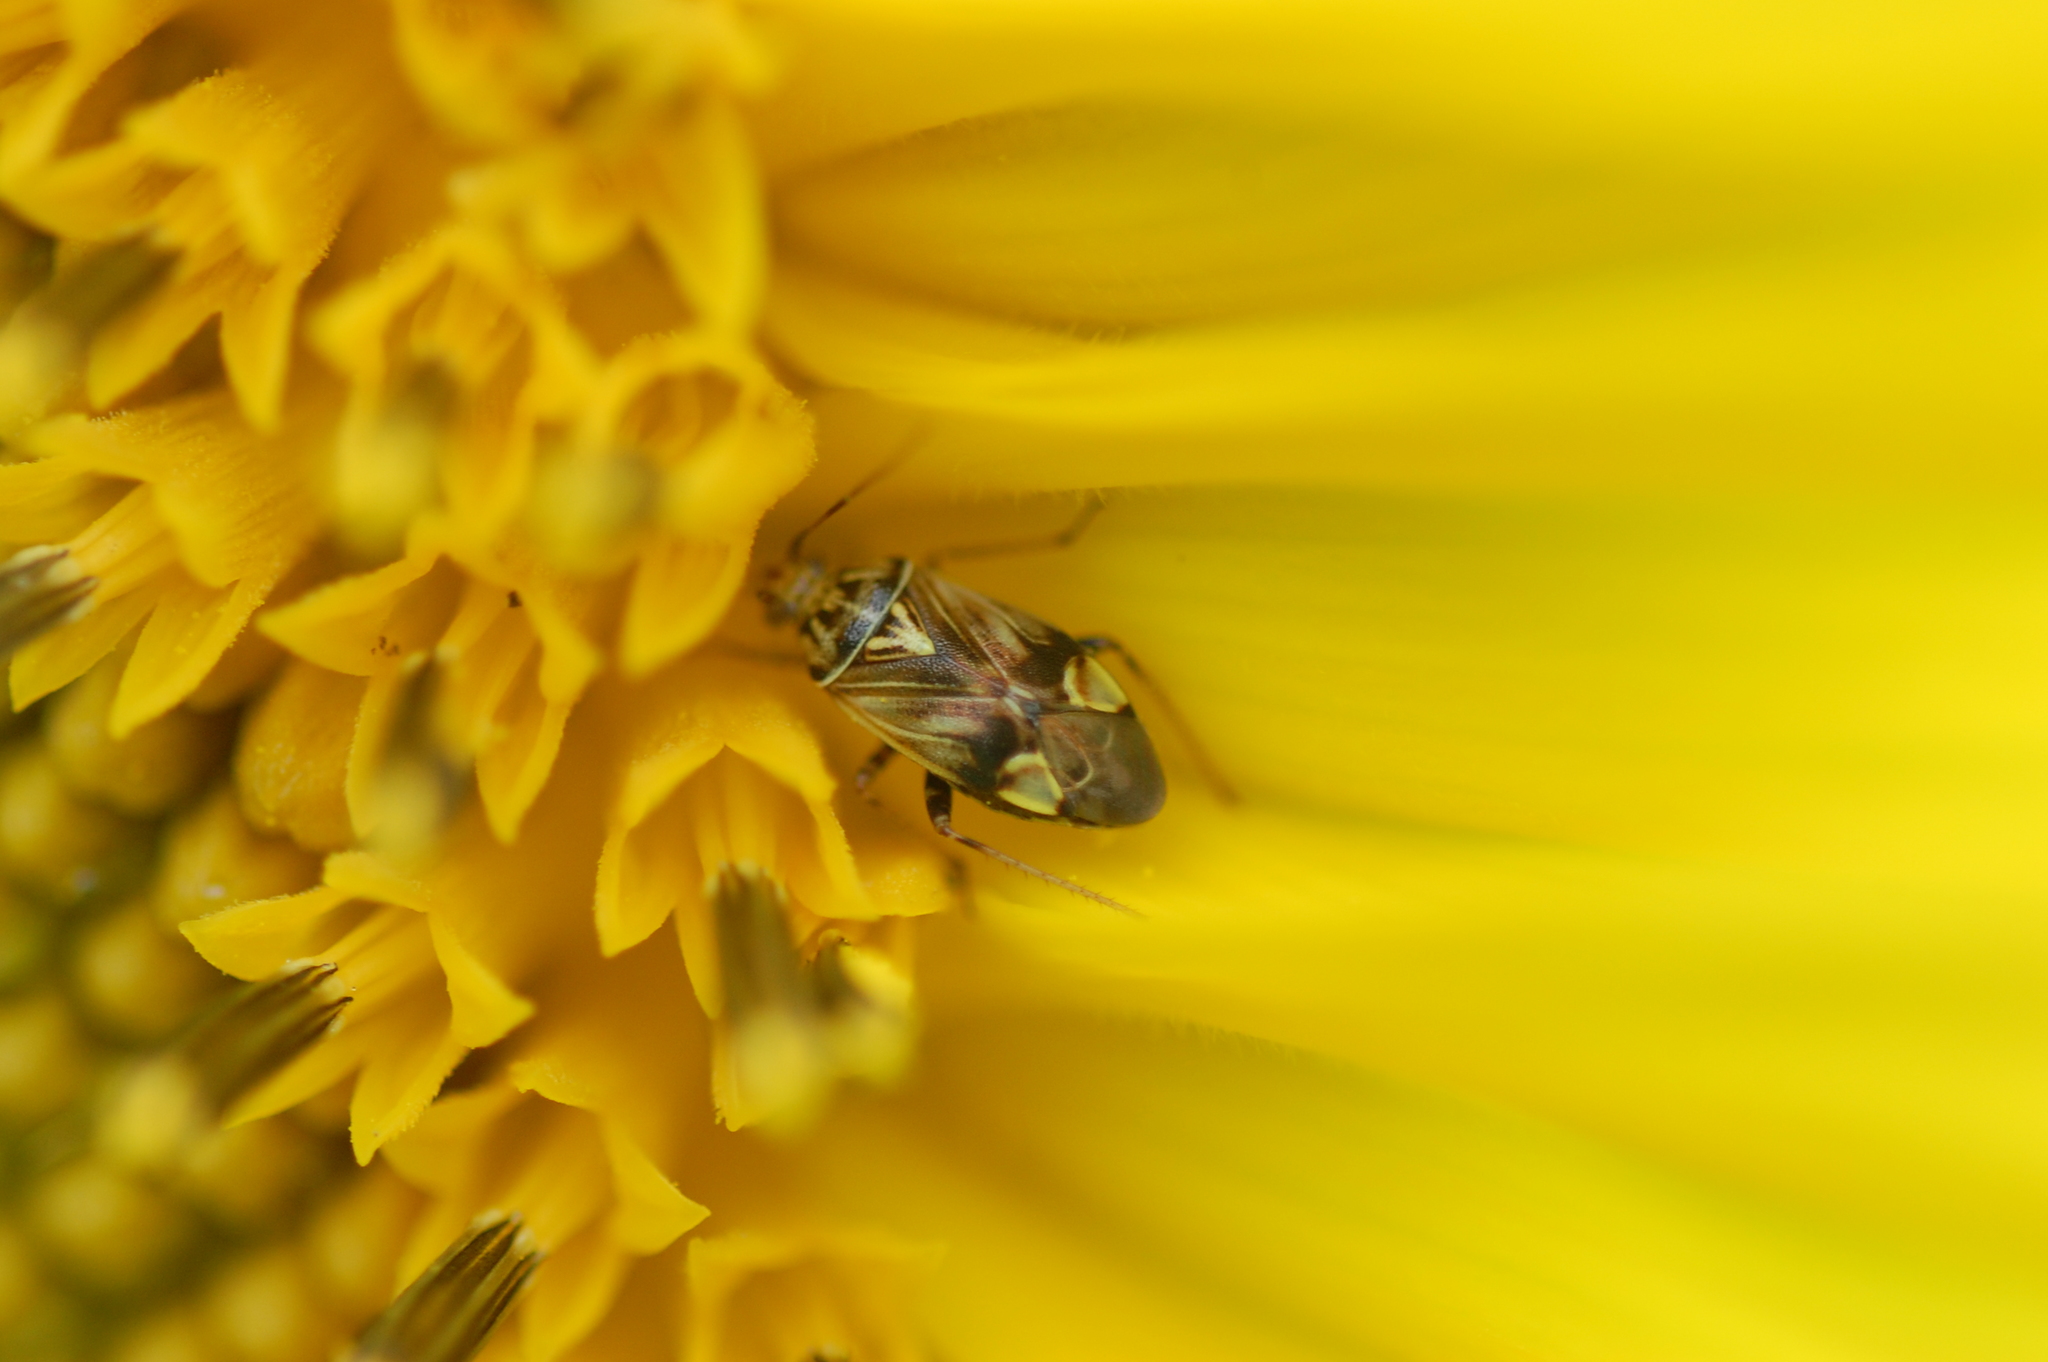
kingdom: Animalia
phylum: Arthropoda
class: Insecta
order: Hemiptera
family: Miridae
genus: Lygus
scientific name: Lygus lineolaris
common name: North american tarnished plant bug
